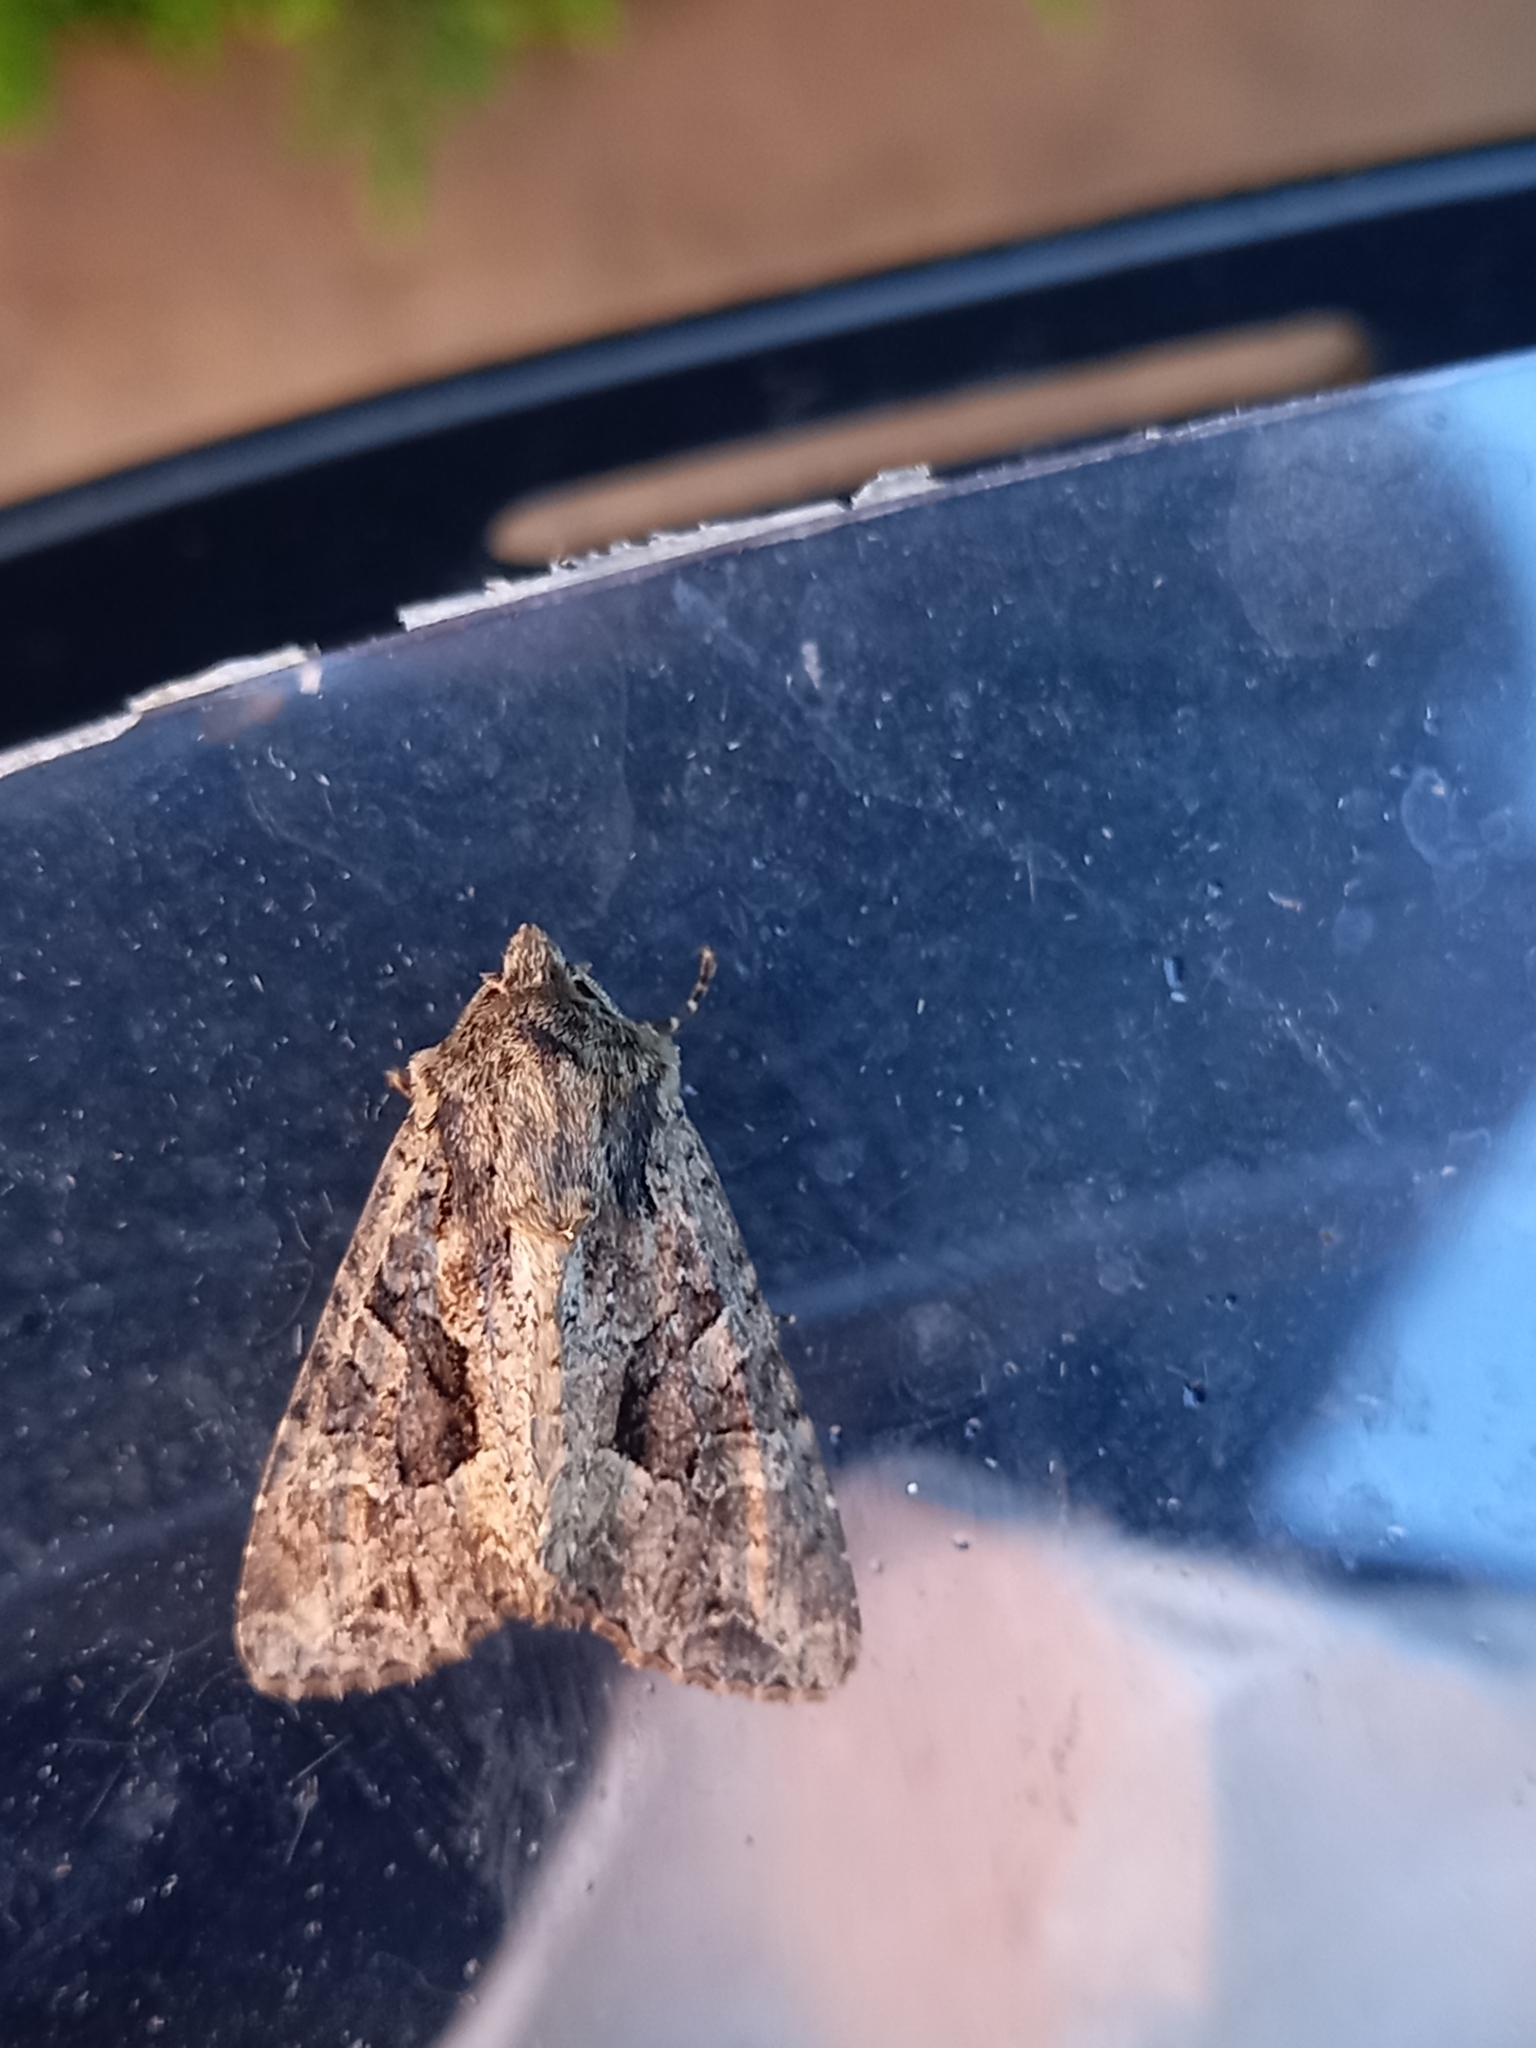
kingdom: Animalia
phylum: Arthropoda
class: Insecta
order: Lepidoptera
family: Noctuidae
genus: Apamea
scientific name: Apamea remissa
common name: Dusky brocade
